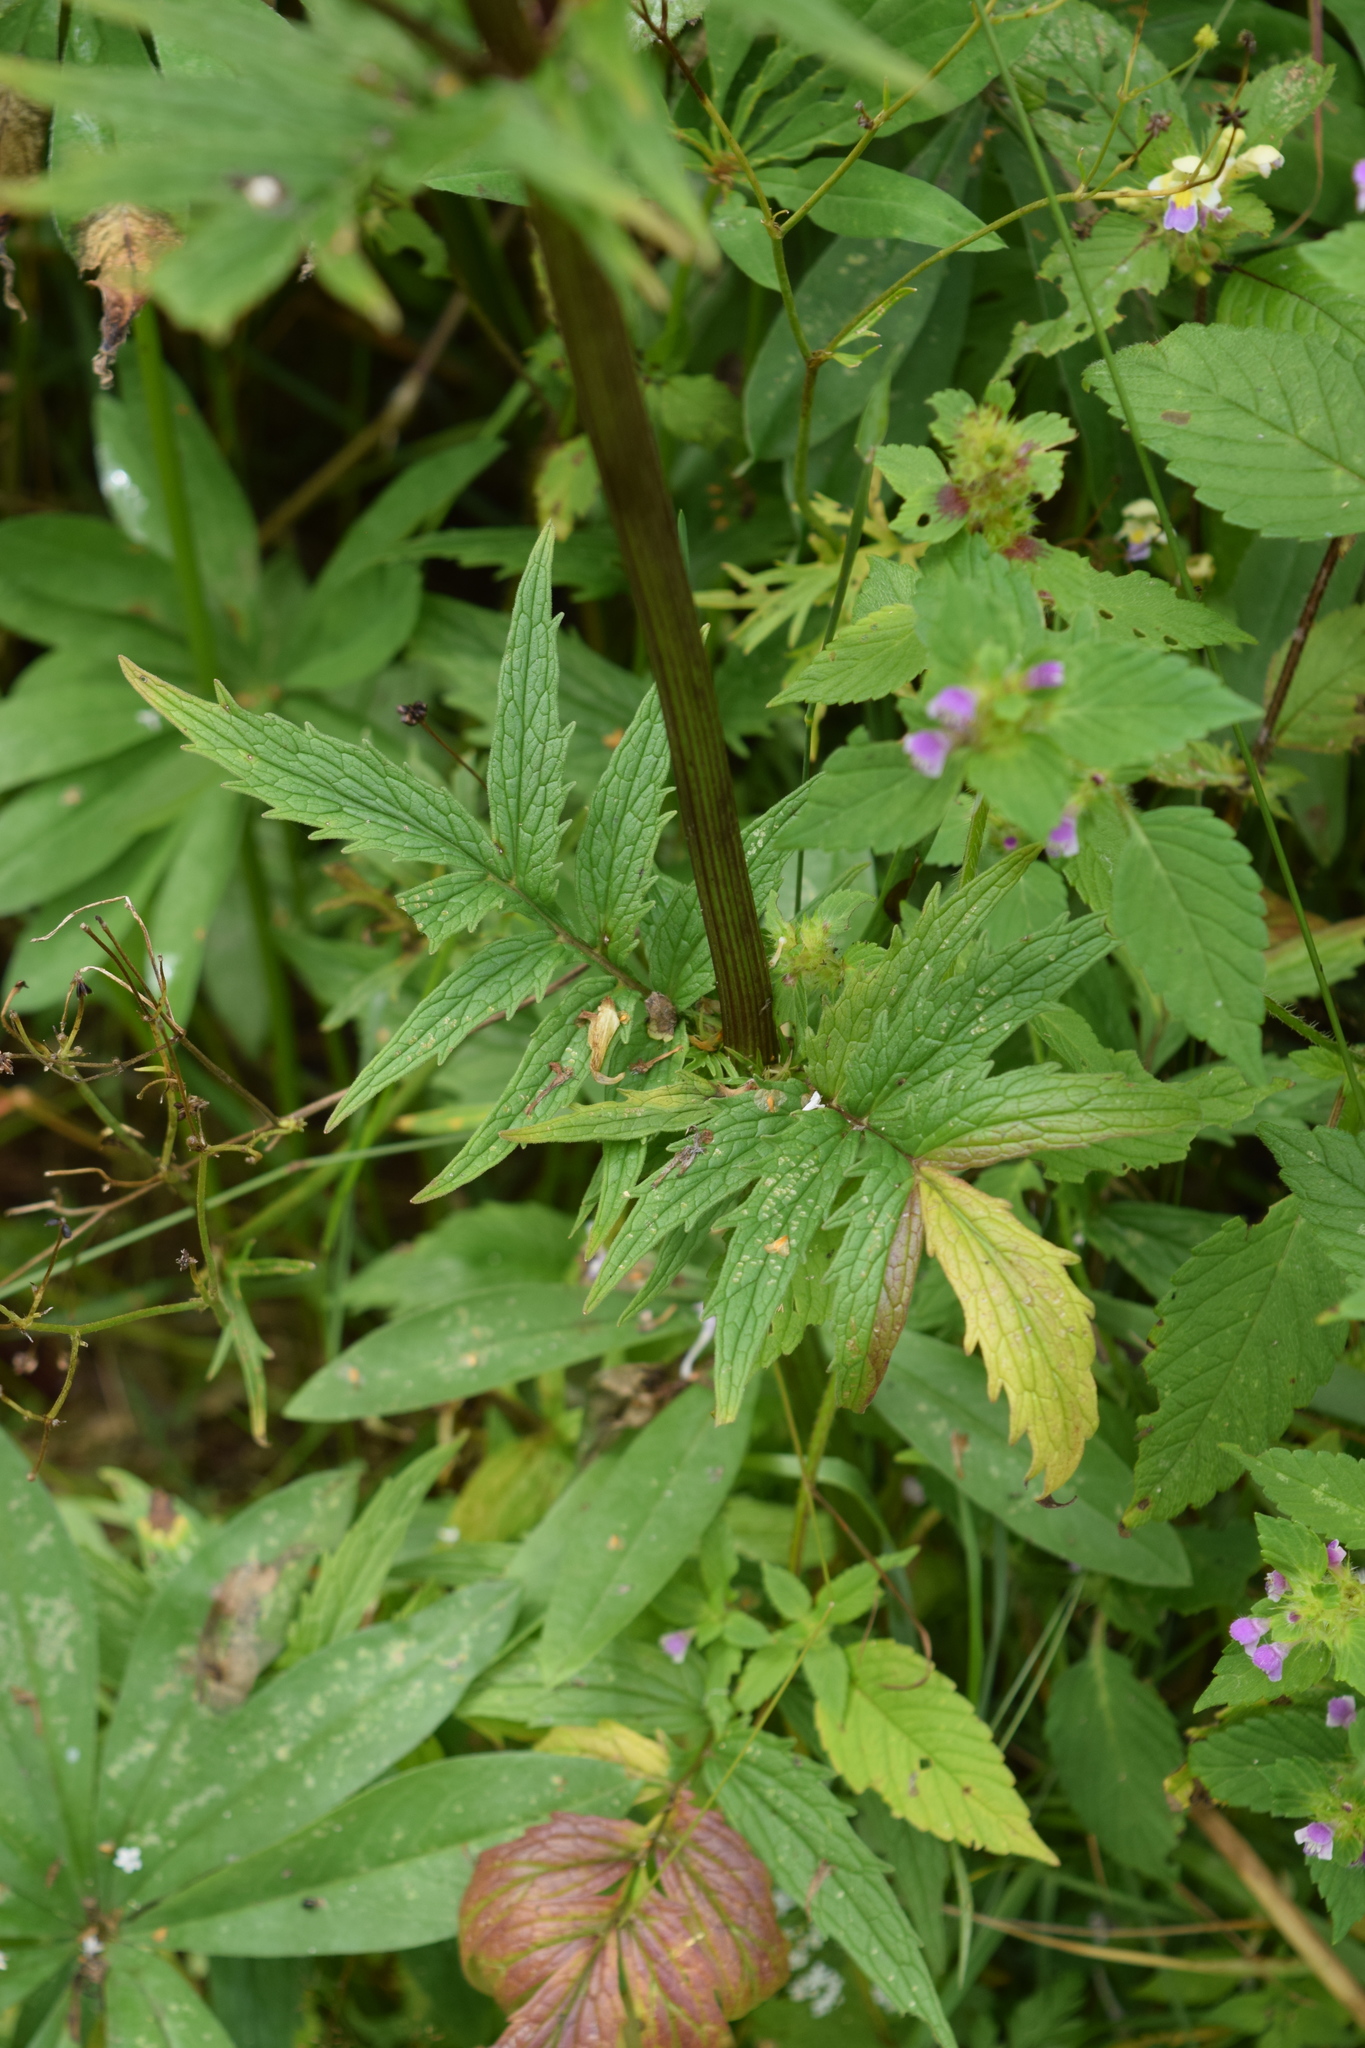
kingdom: Plantae
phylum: Tracheophyta
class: Magnoliopsida
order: Dipsacales
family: Caprifoliaceae
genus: Valeriana
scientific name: Valeriana officinalis
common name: Common valerian
